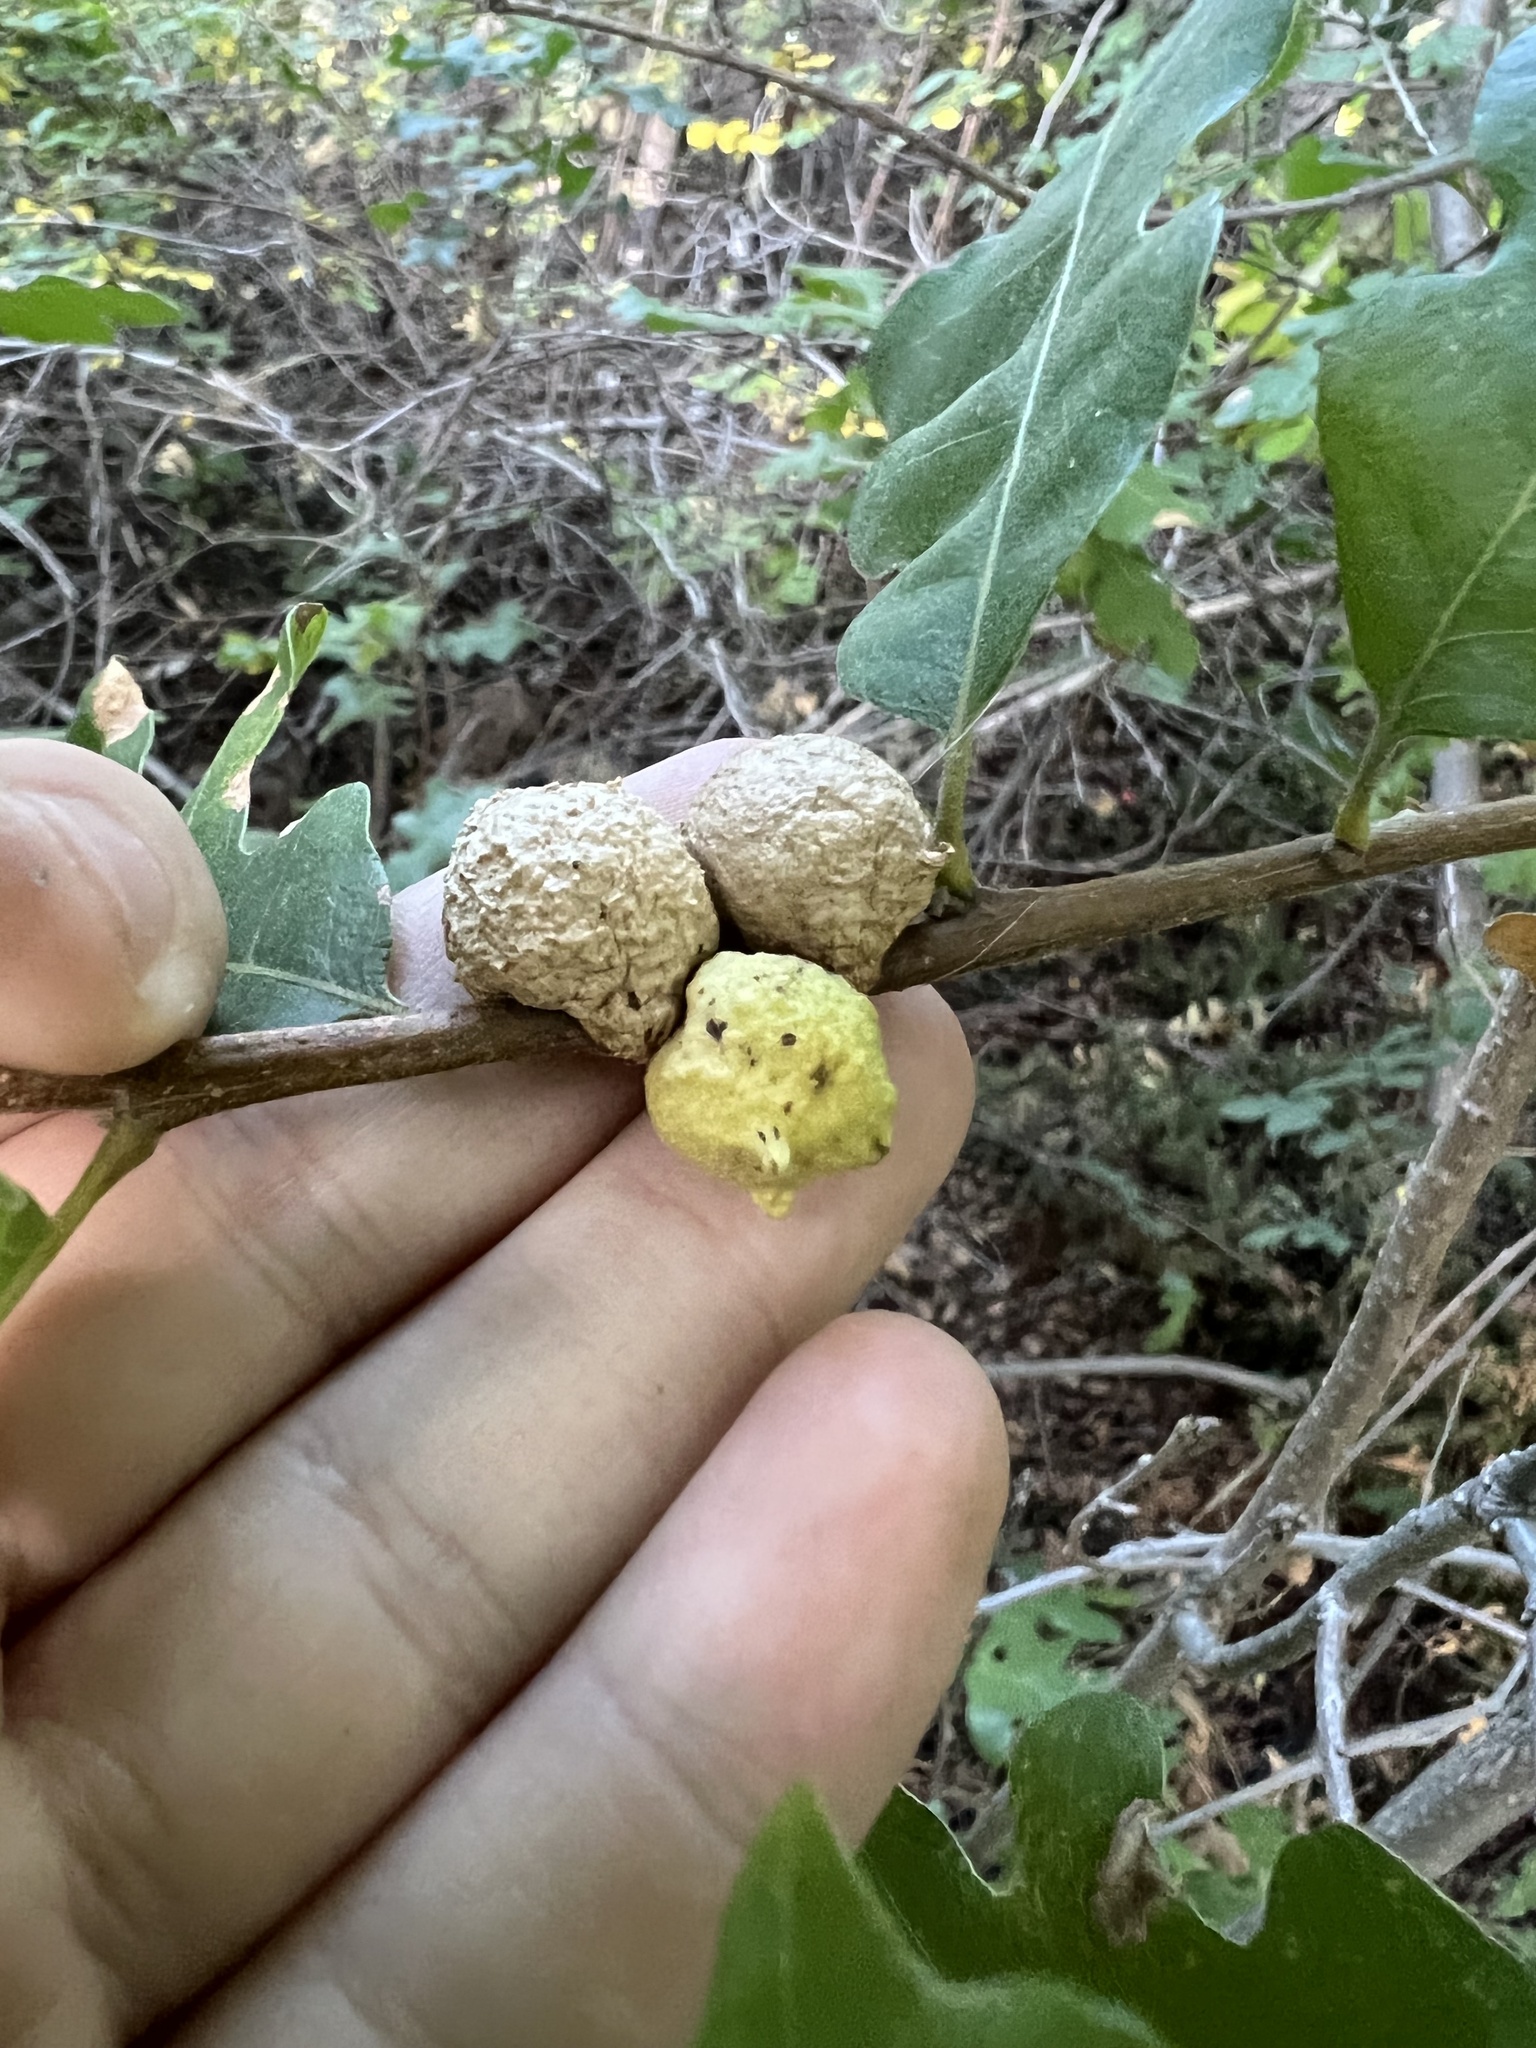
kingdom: Animalia
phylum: Arthropoda
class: Insecta
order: Hymenoptera
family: Cynipidae
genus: Disholcaspis
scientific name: Disholcaspis
